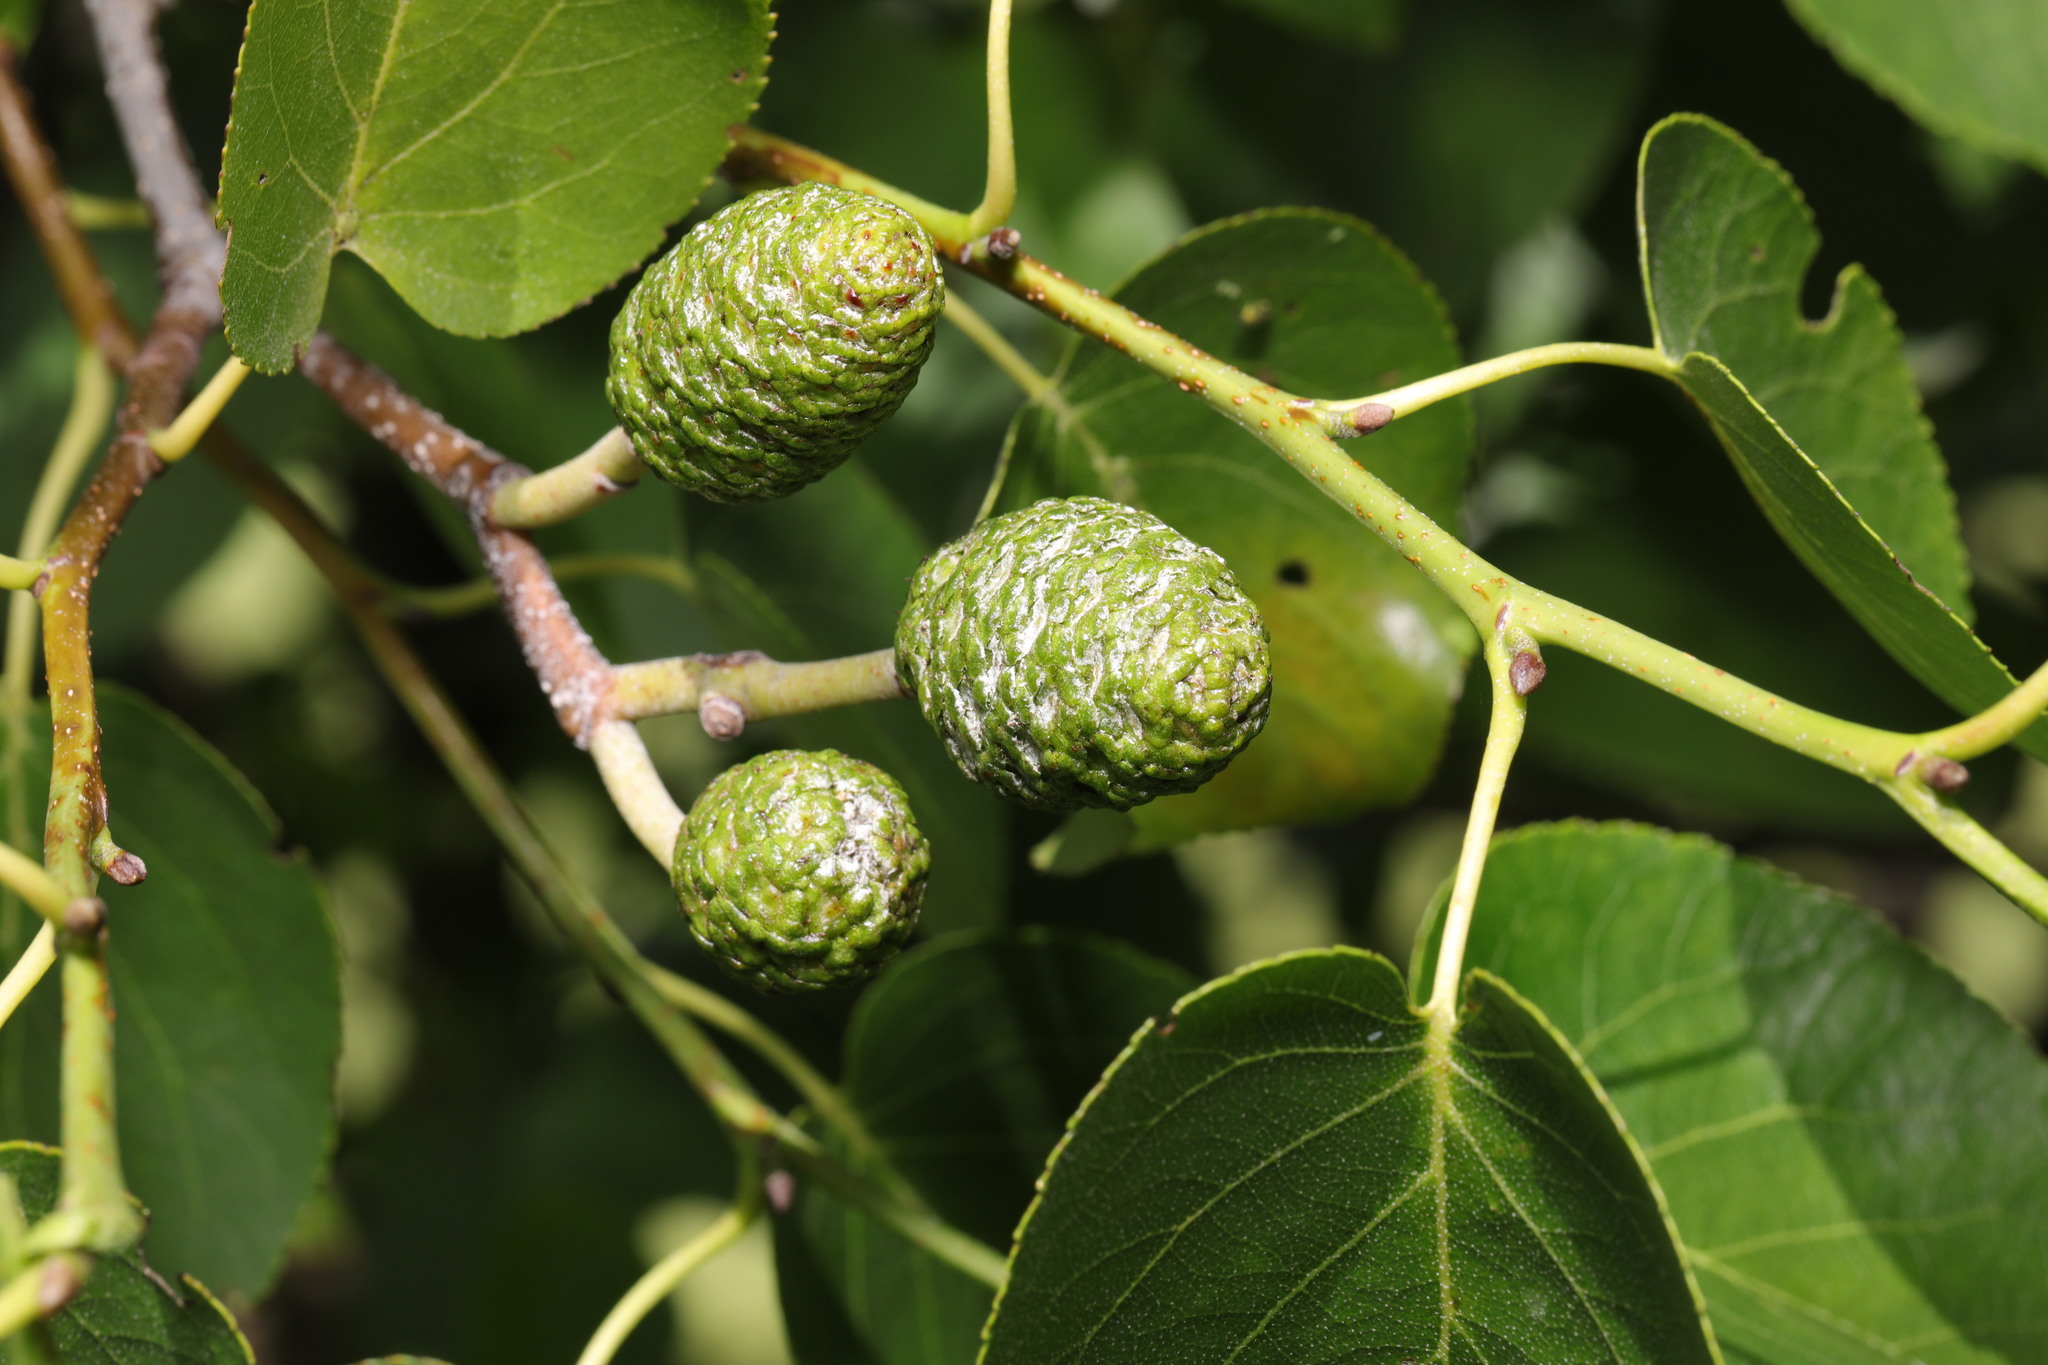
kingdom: Plantae
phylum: Tracheophyta
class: Magnoliopsida
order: Fagales
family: Betulaceae
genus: Alnus
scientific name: Alnus cordata
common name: Italian alder
